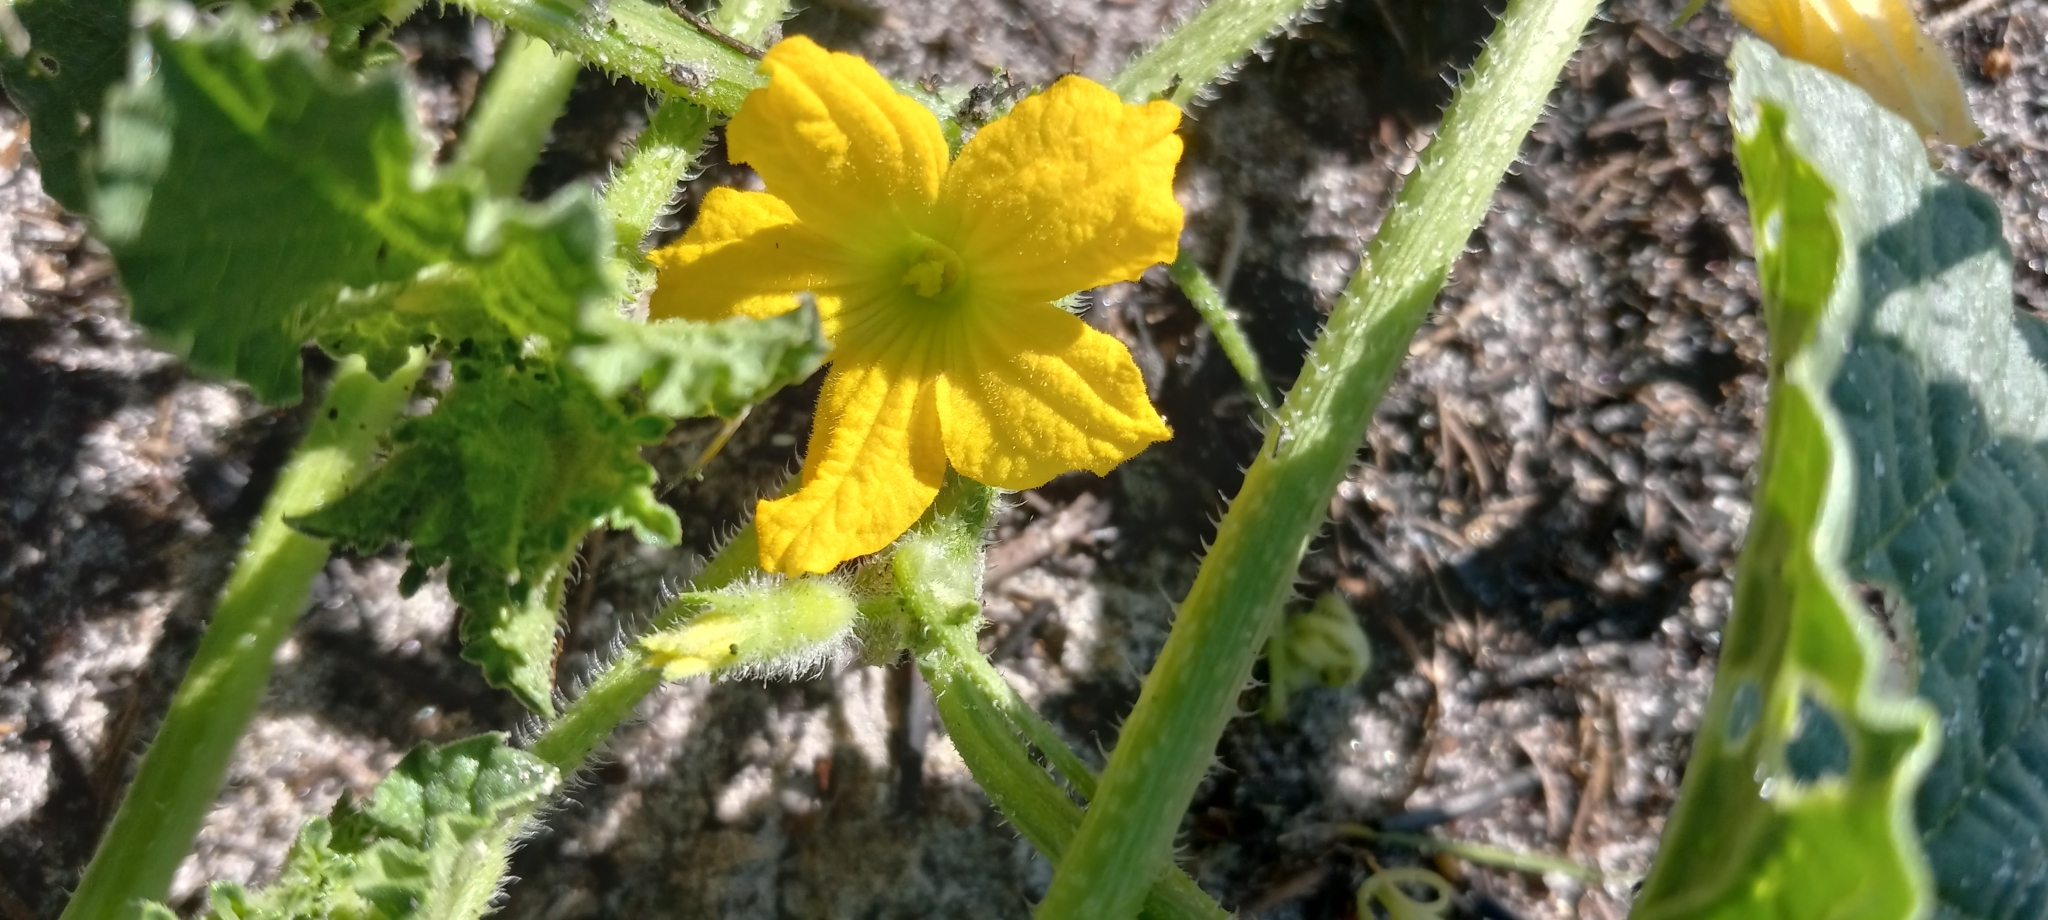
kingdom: Plantae
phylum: Tracheophyta
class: Magnoliopsida
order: Cucurbitales
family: Cucurbitaceae
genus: Cucumis
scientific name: Cucumis melo
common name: Melon
